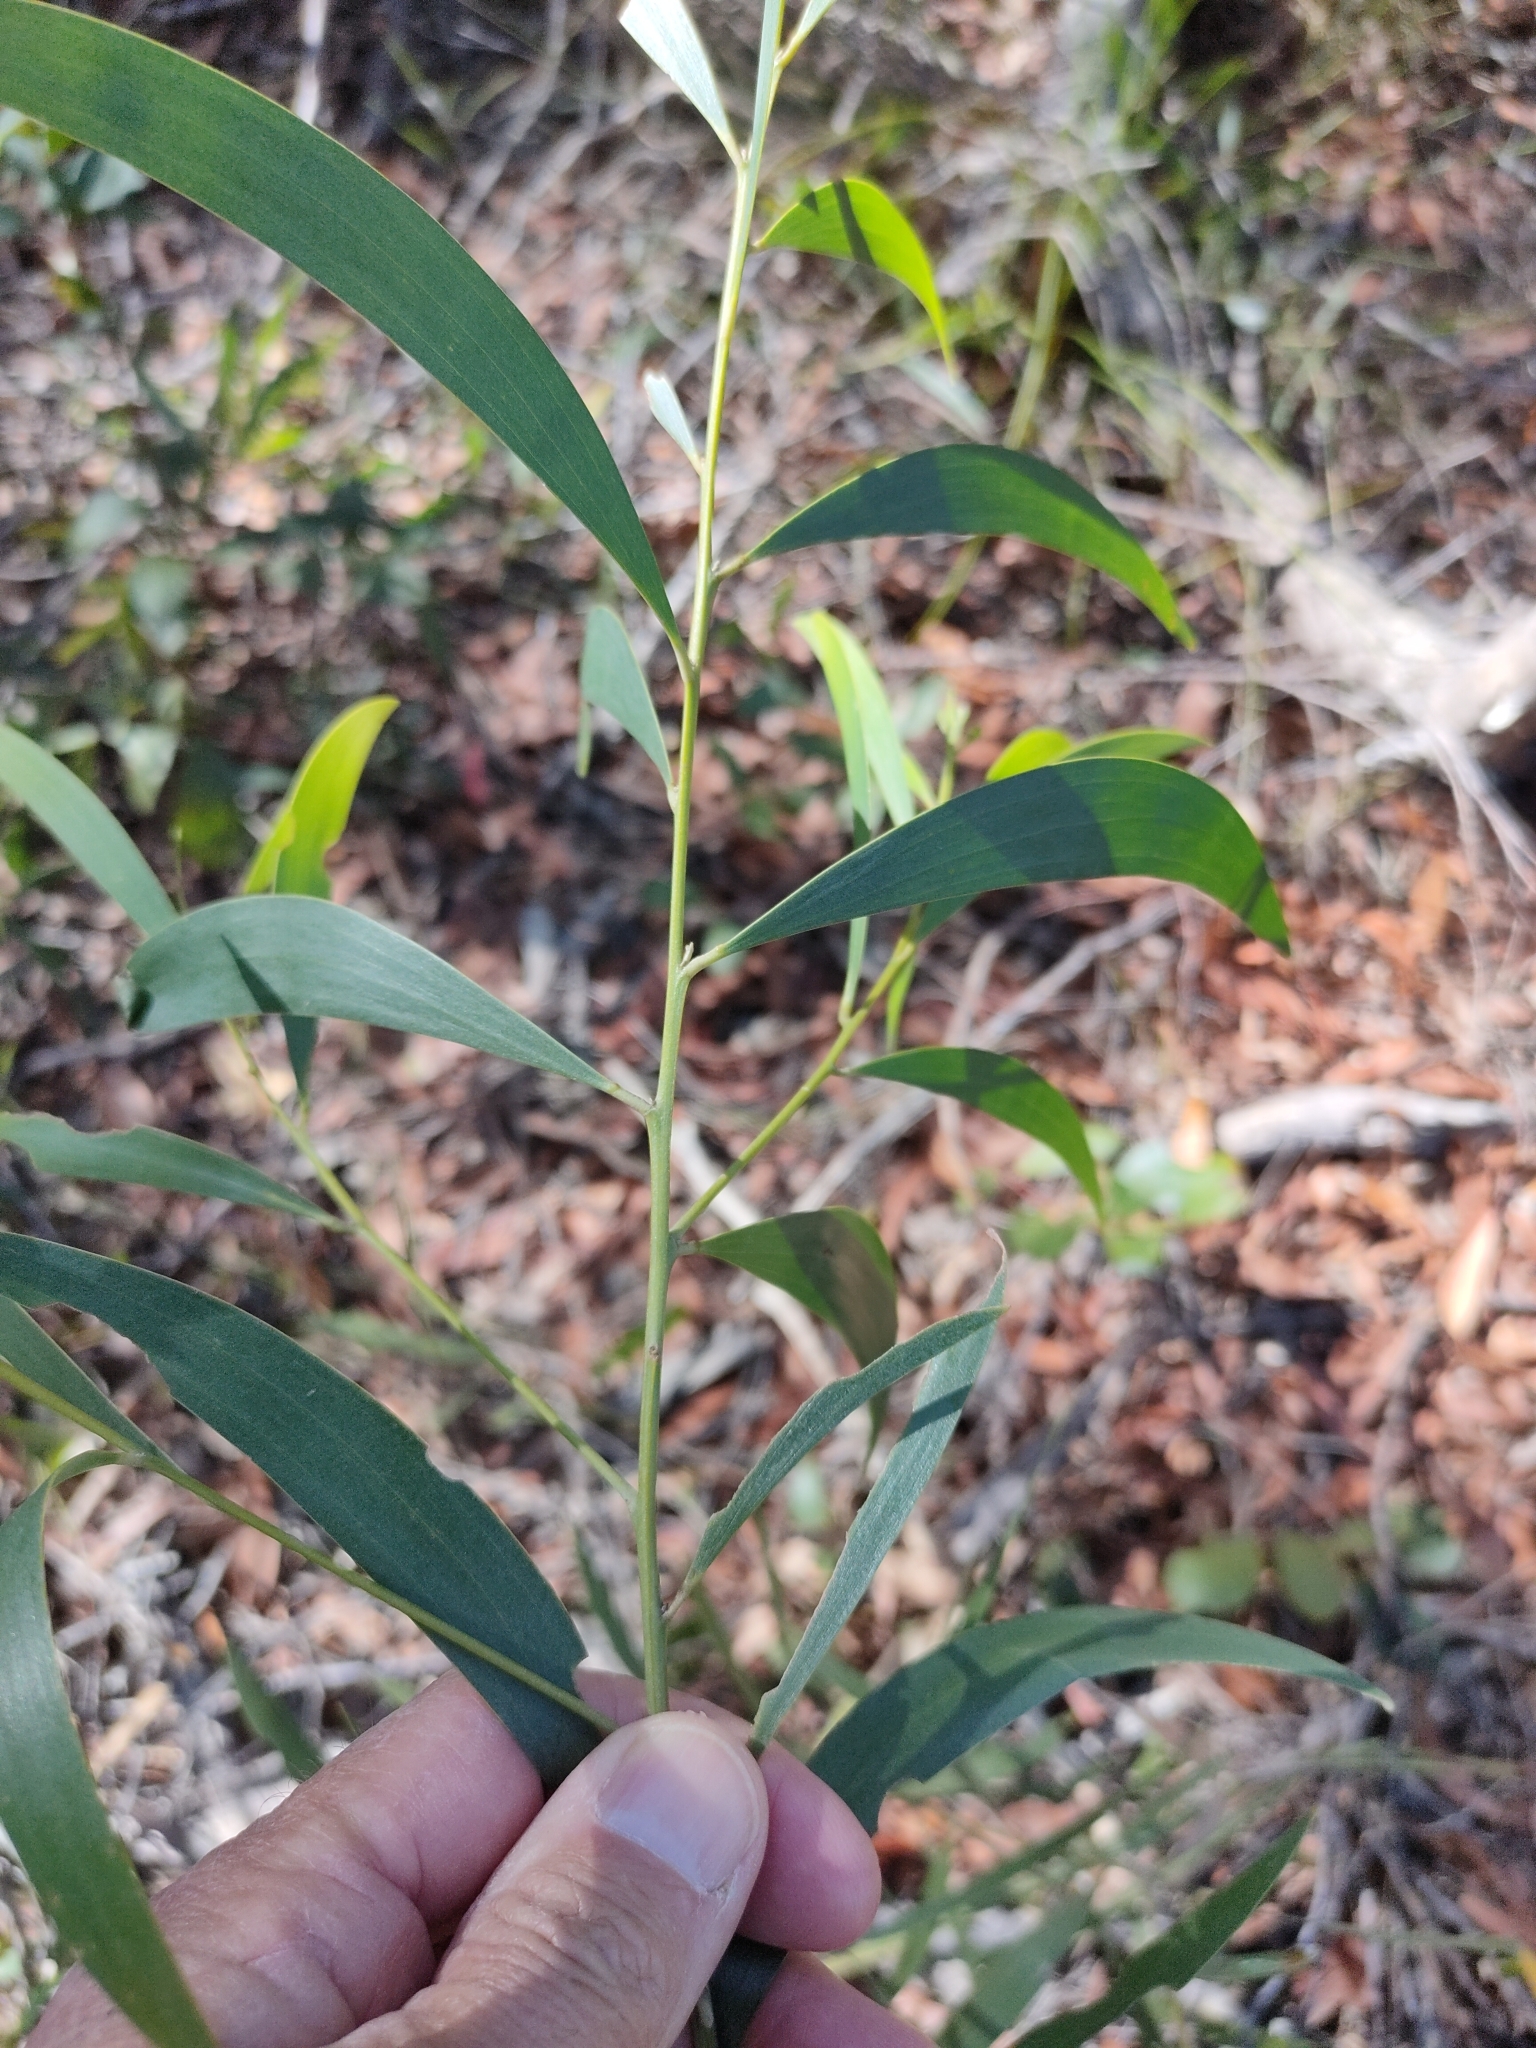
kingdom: Plantae
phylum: Tracheophyta
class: Magnoliopsida
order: Fabales
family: Fabaceae
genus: Acacia
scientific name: Acacia disparrima
